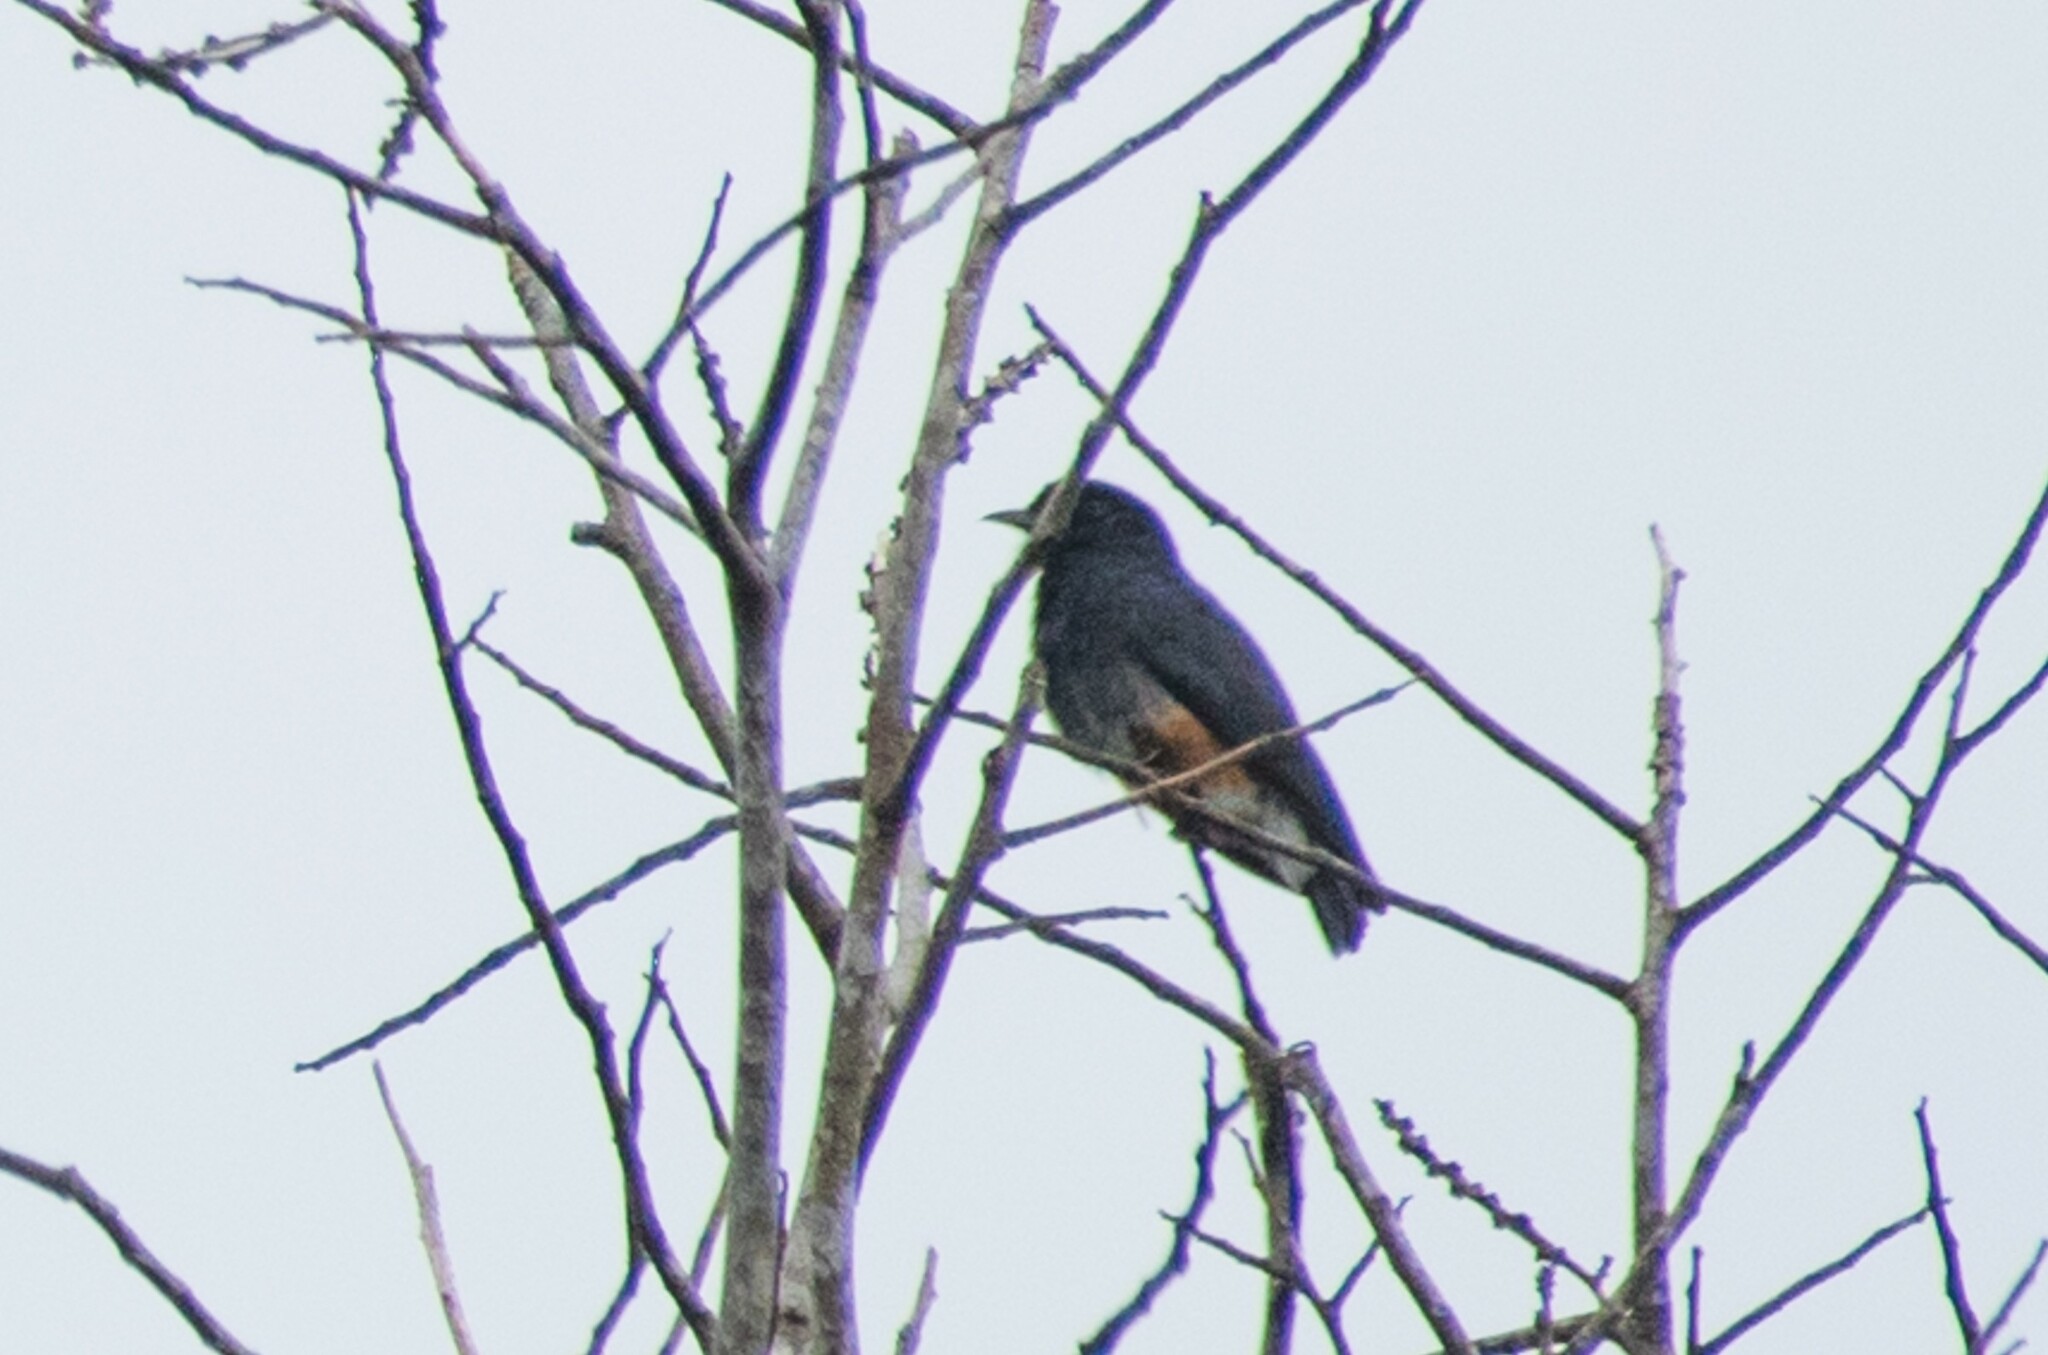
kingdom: Animalia
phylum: Chordata
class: Aves
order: Piciformes
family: Bucconidae
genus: Chelidoptera
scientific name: Chelidoptera tenebrosa
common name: Swallow-winged puffbird
